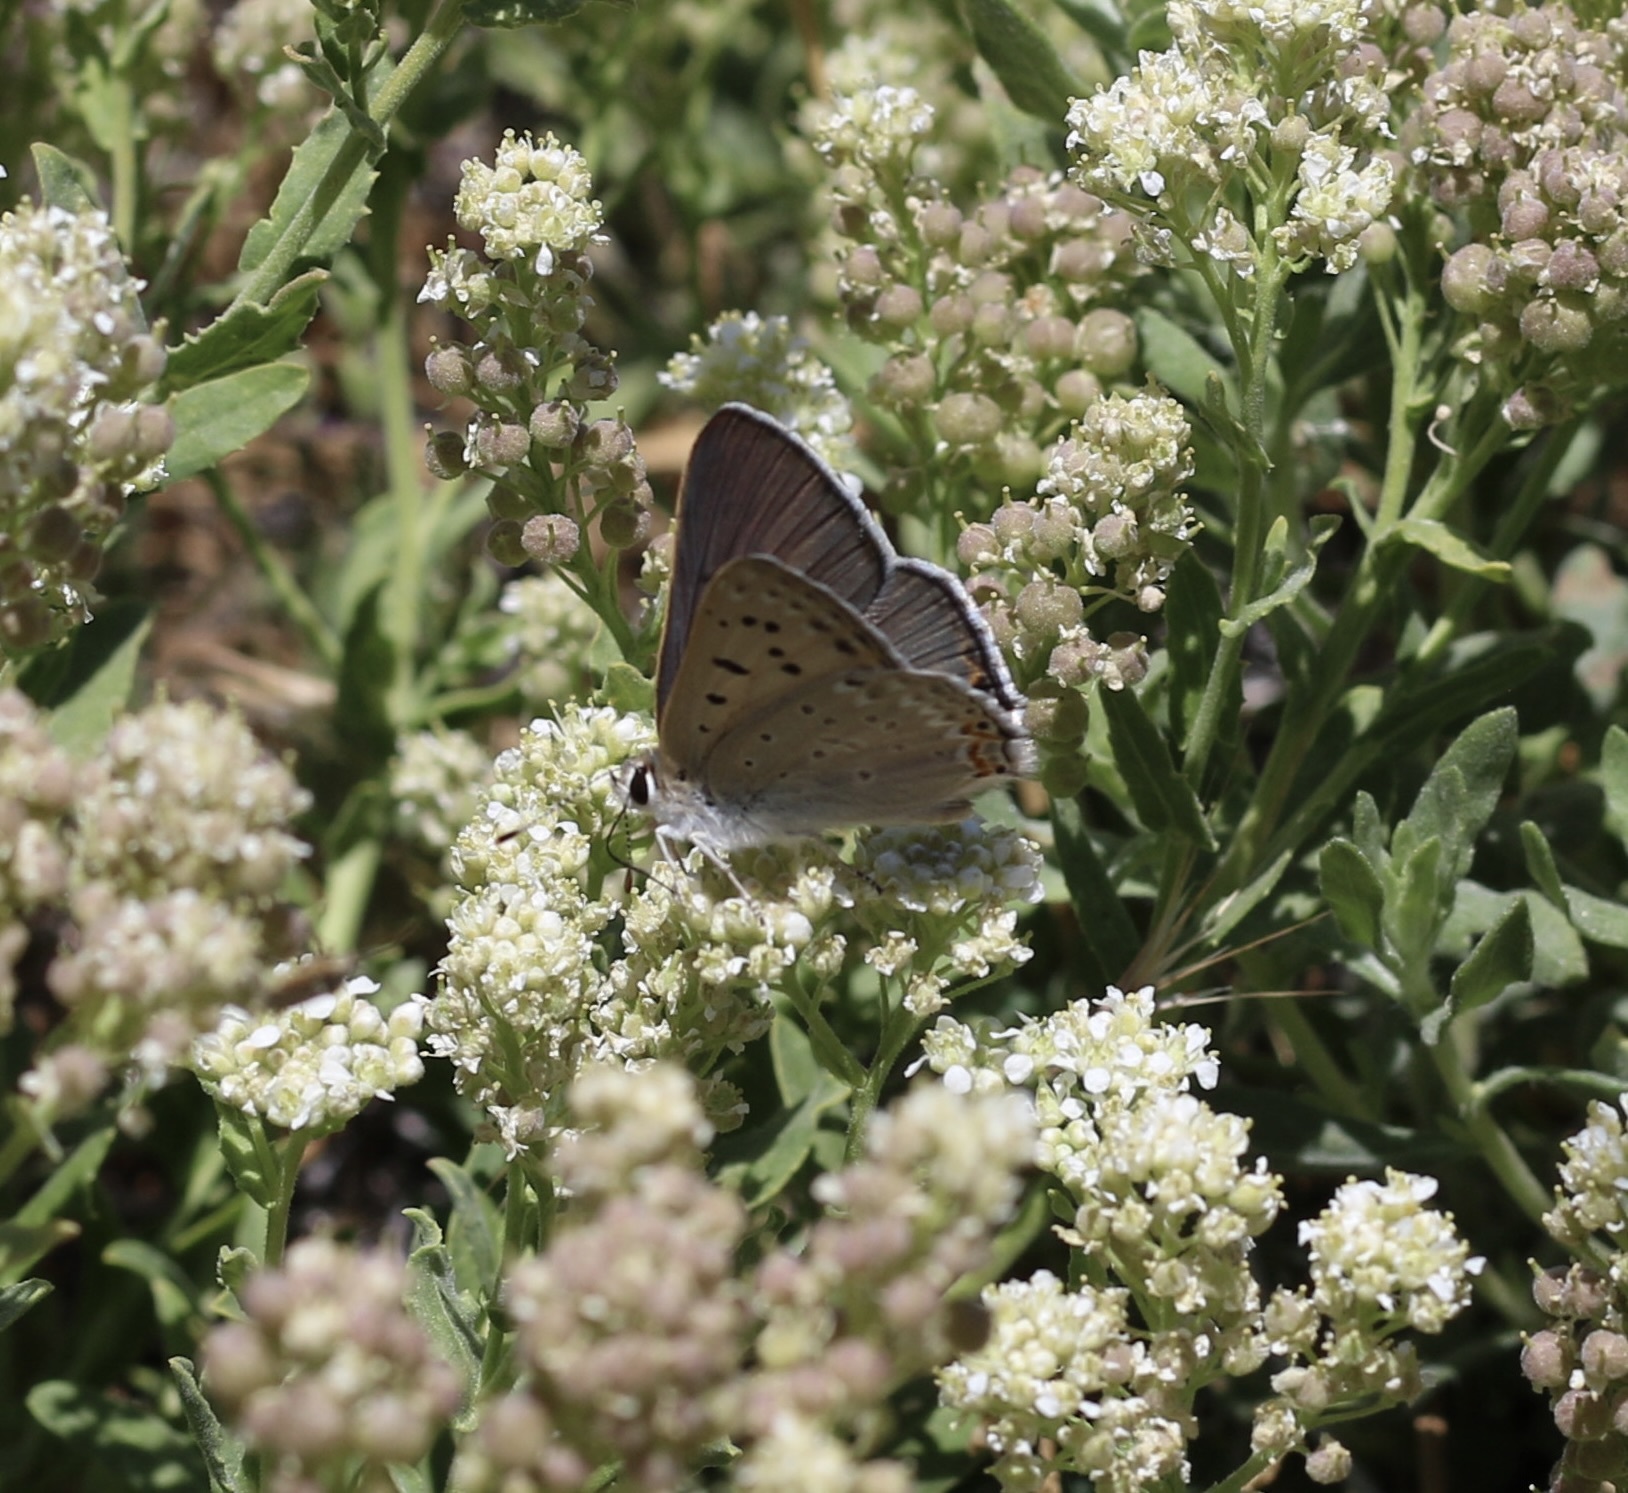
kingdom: Animalia
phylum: Arthropoda
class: Insecta
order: Lepidoptera
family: Lycaenidae
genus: Tharsalea
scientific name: Tharsalea xanthoides
